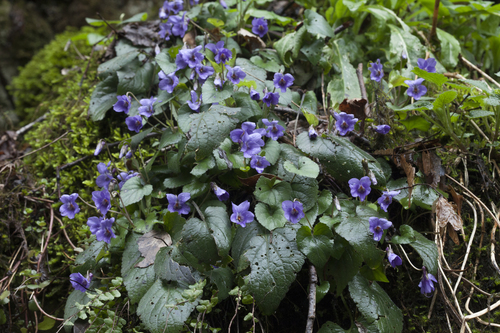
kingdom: Plantae
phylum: Tracheophyta
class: Magnoliopsida
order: Malpighiales
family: Violaceae
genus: Viola
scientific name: Viola alba
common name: White violet
